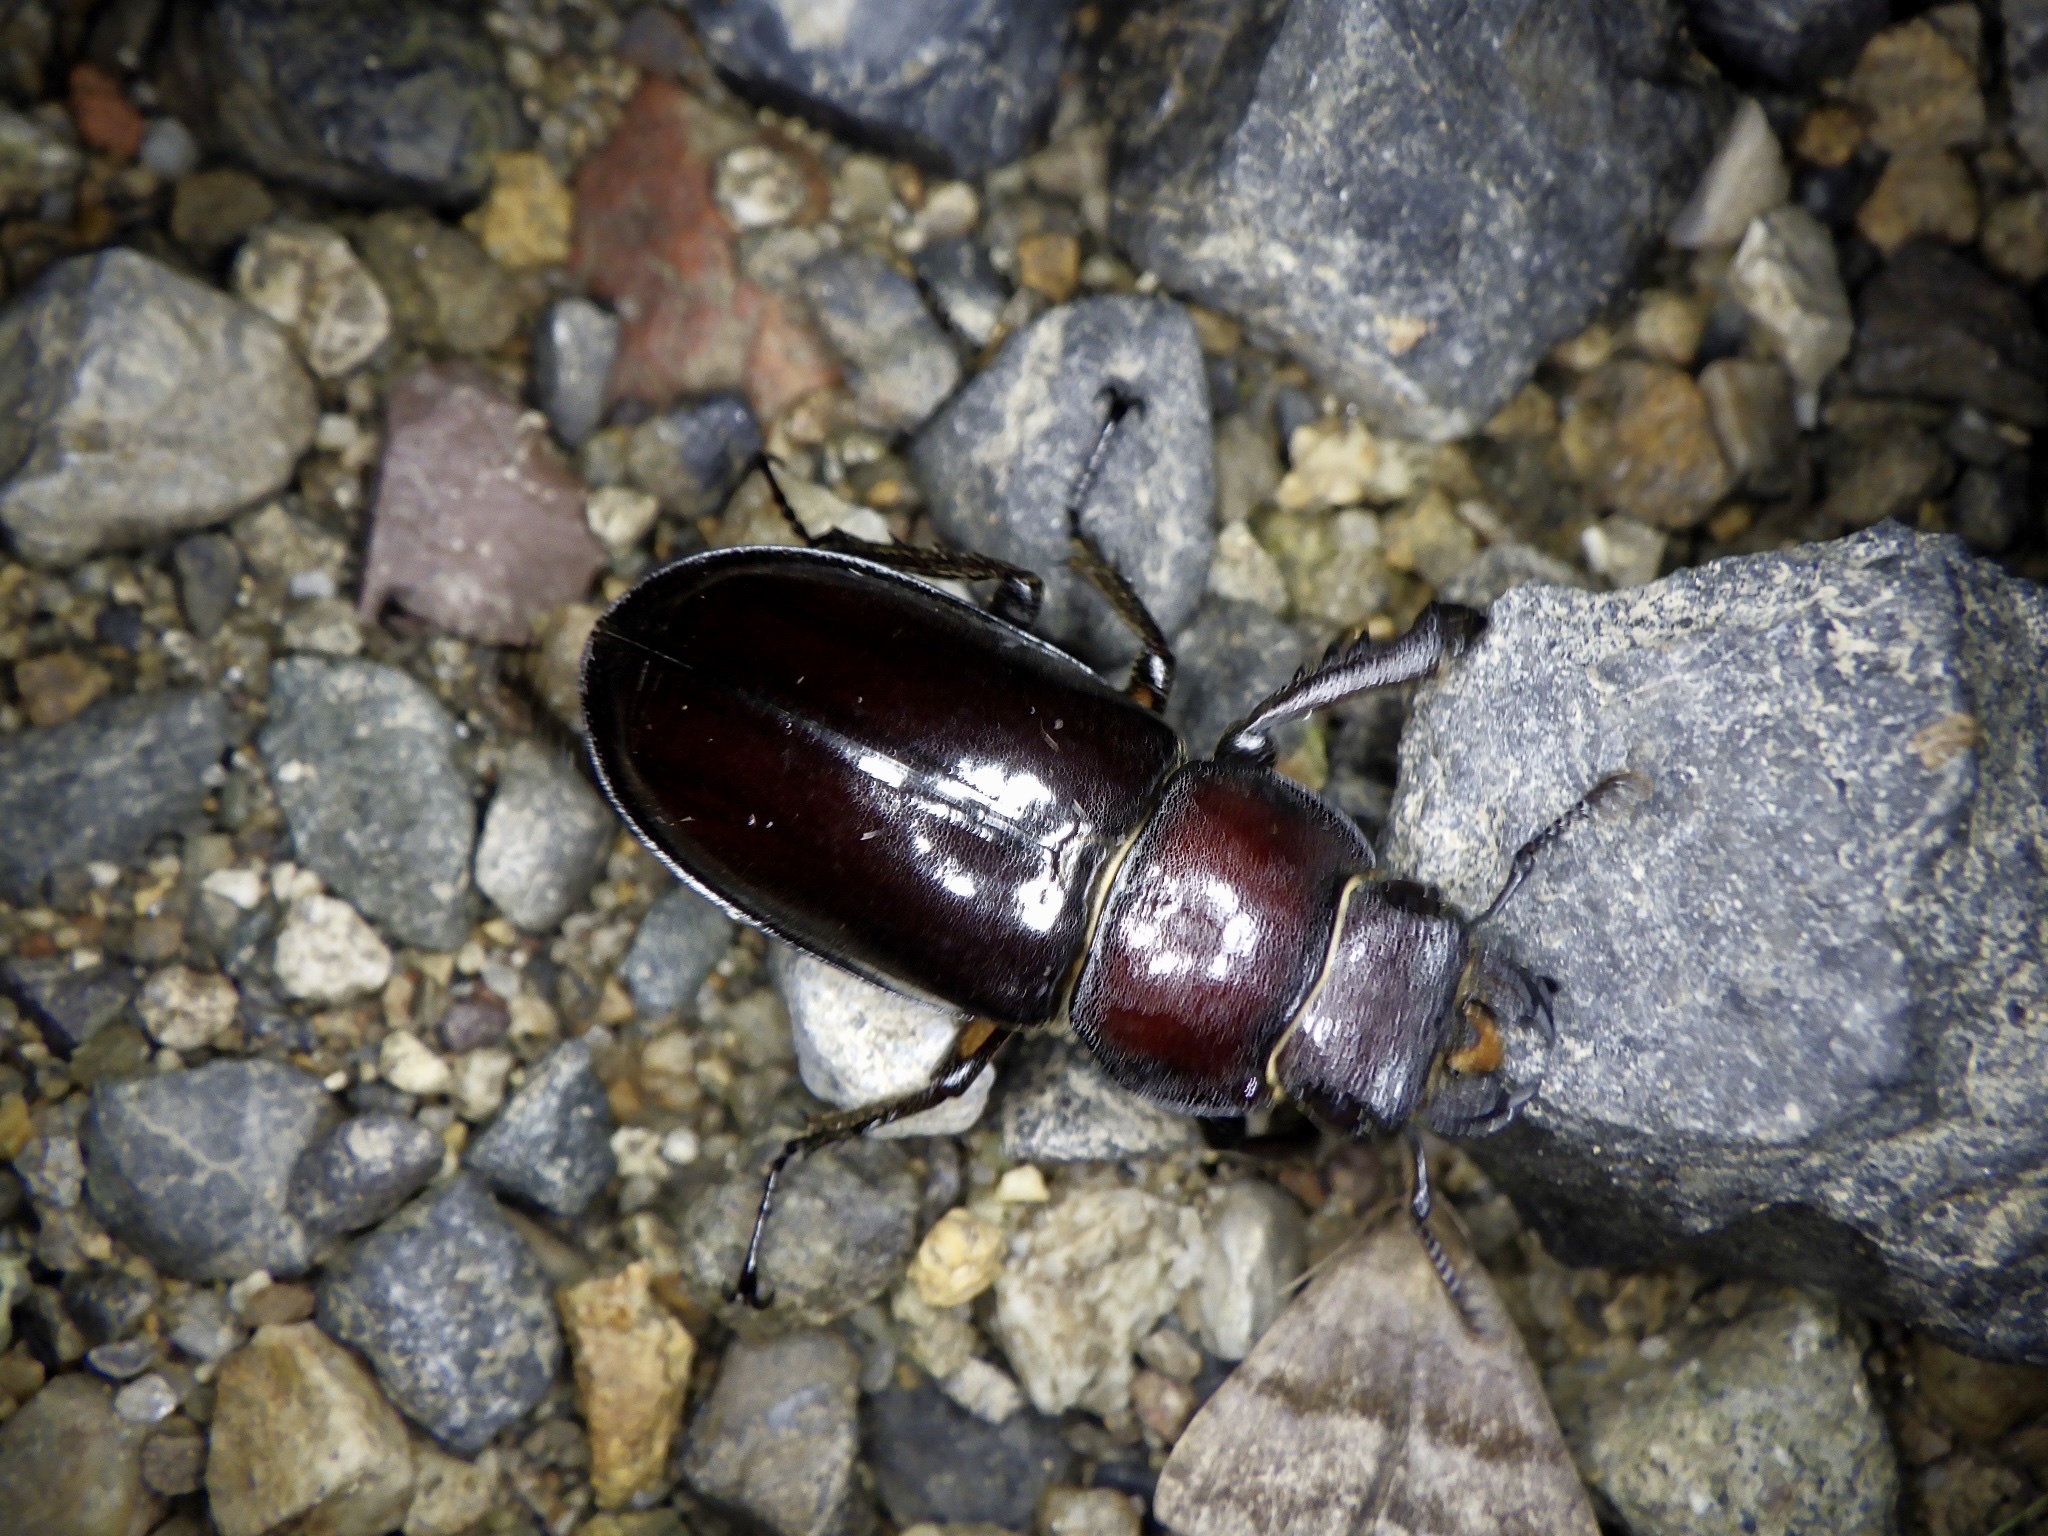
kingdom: Animalia
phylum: Arthropoda
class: Insecta
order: Coleoptera
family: Lucanidae
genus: Lucanus
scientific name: Lucanus maculifemoratus
